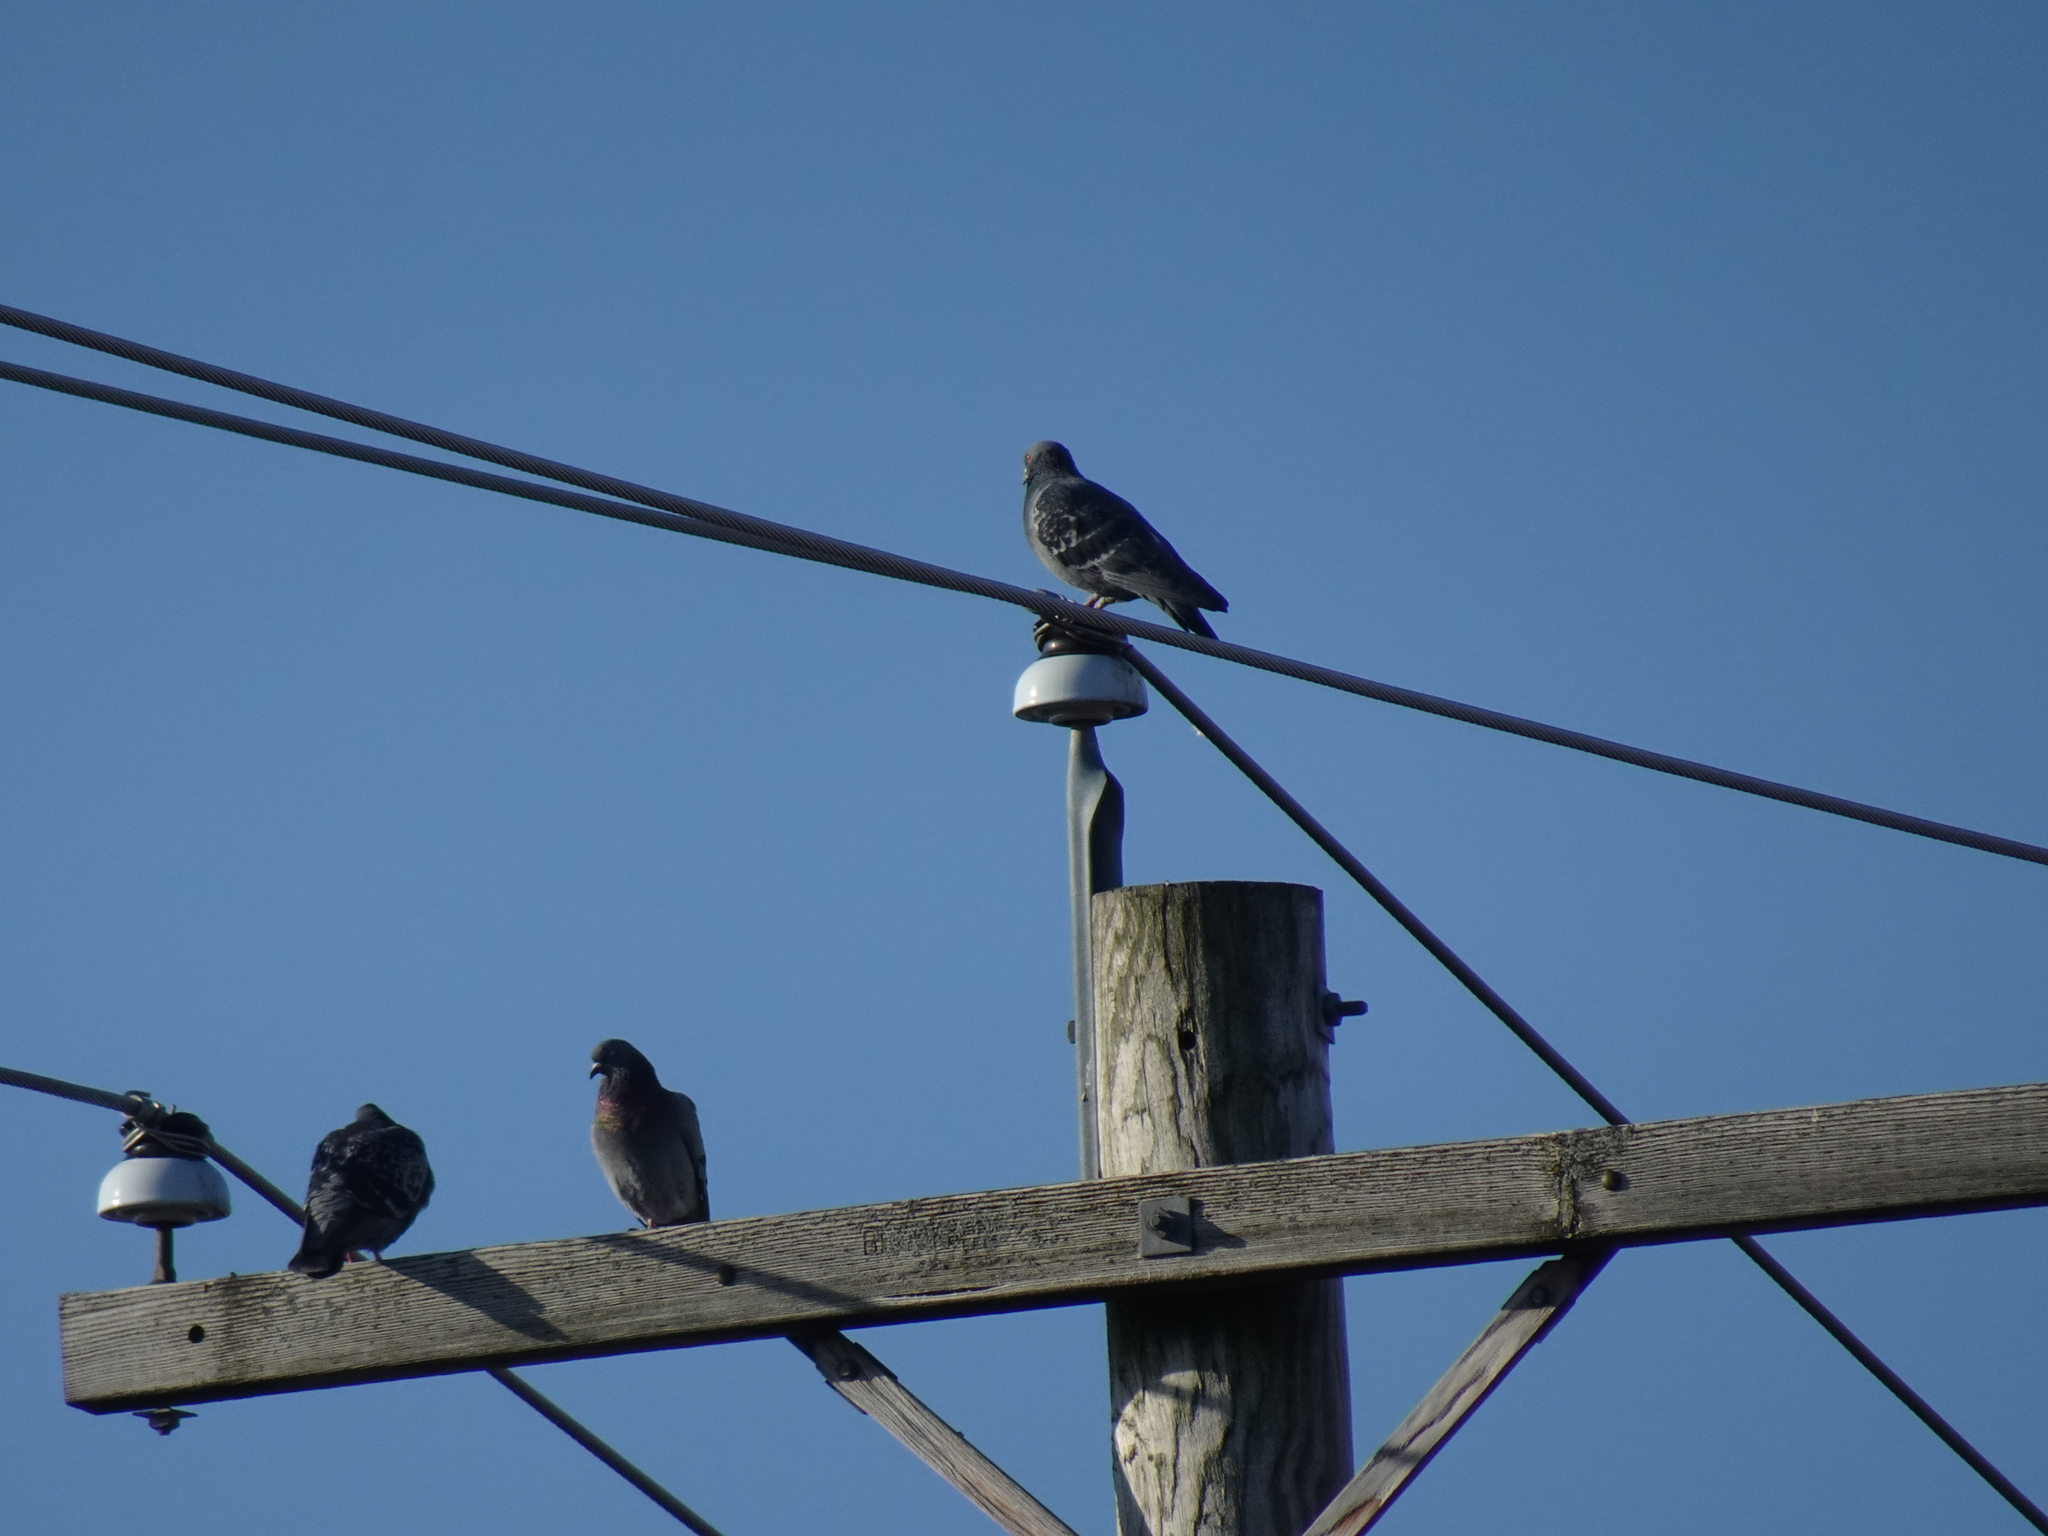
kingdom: Animalia
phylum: Chordata
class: Aves
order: Columbiformes
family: Columbidae
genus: Columba
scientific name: Columba livia
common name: Rock pigeon
